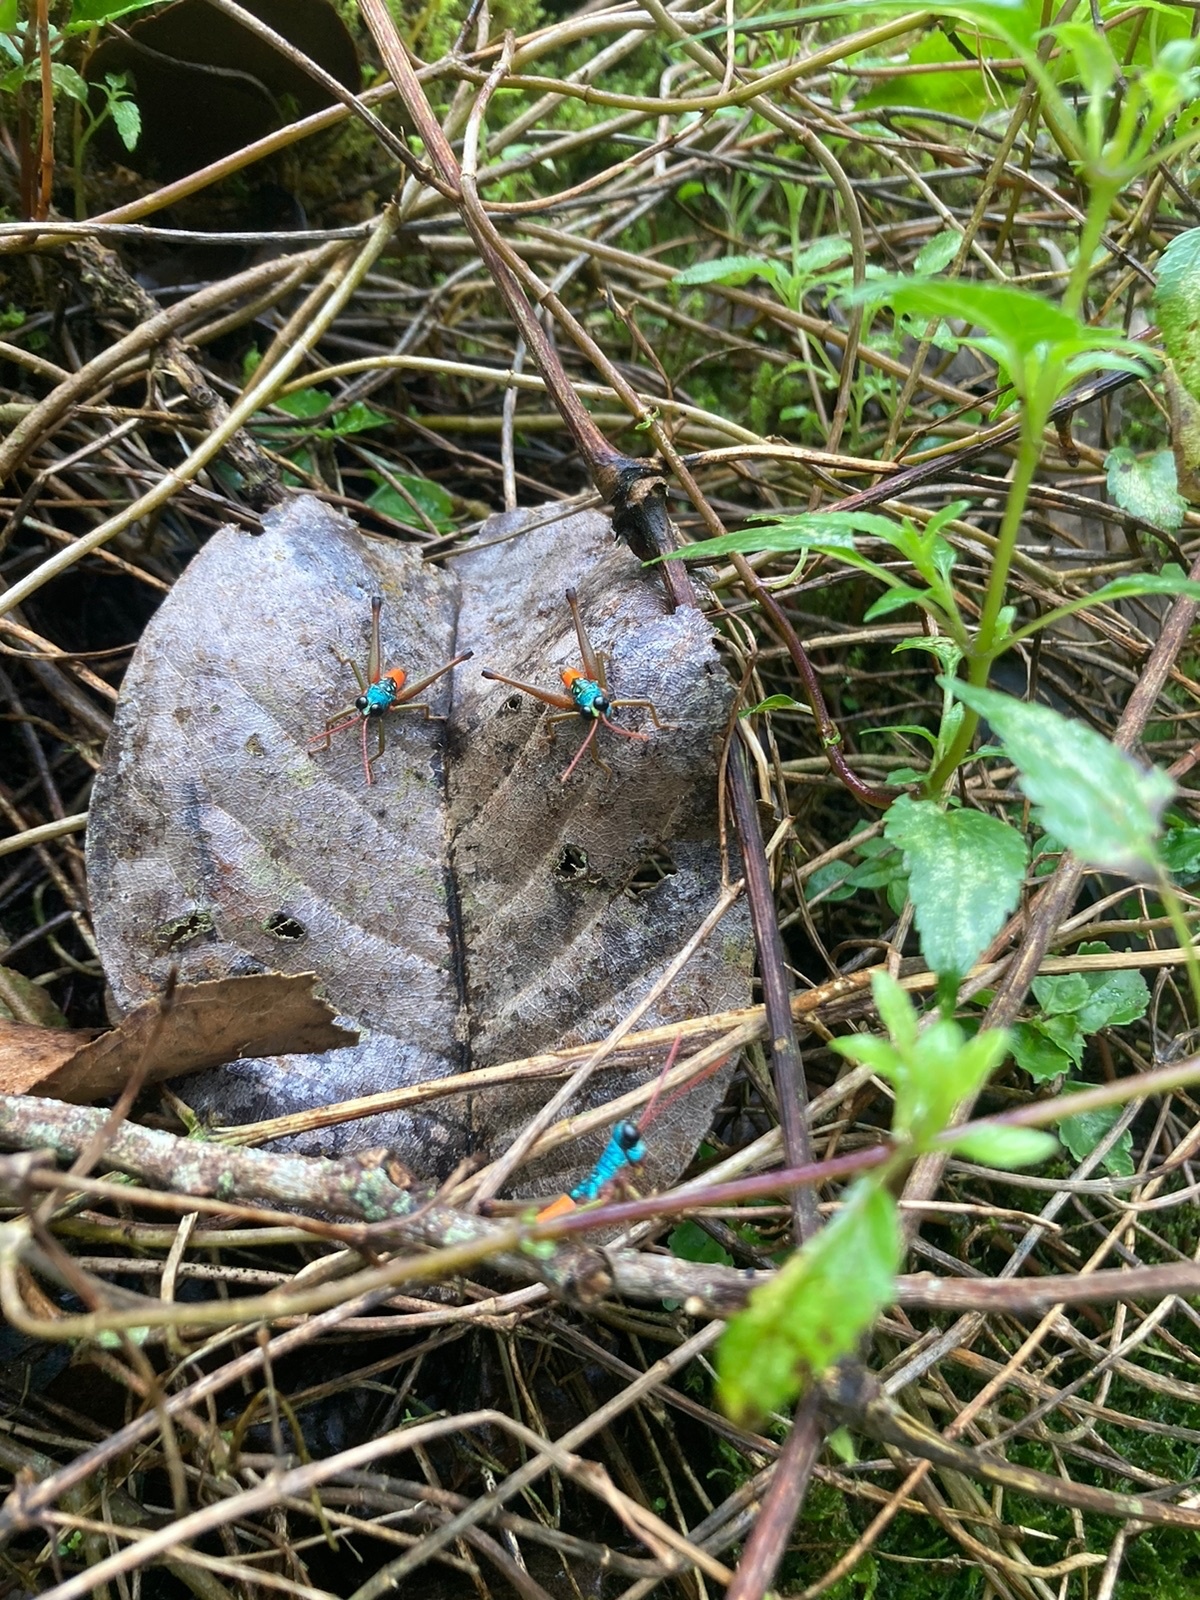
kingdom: Animalia
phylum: Arthropoda
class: Insecta
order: Orthoptera
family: Acrididae
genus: Opaonella
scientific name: Opaonella tenuis
